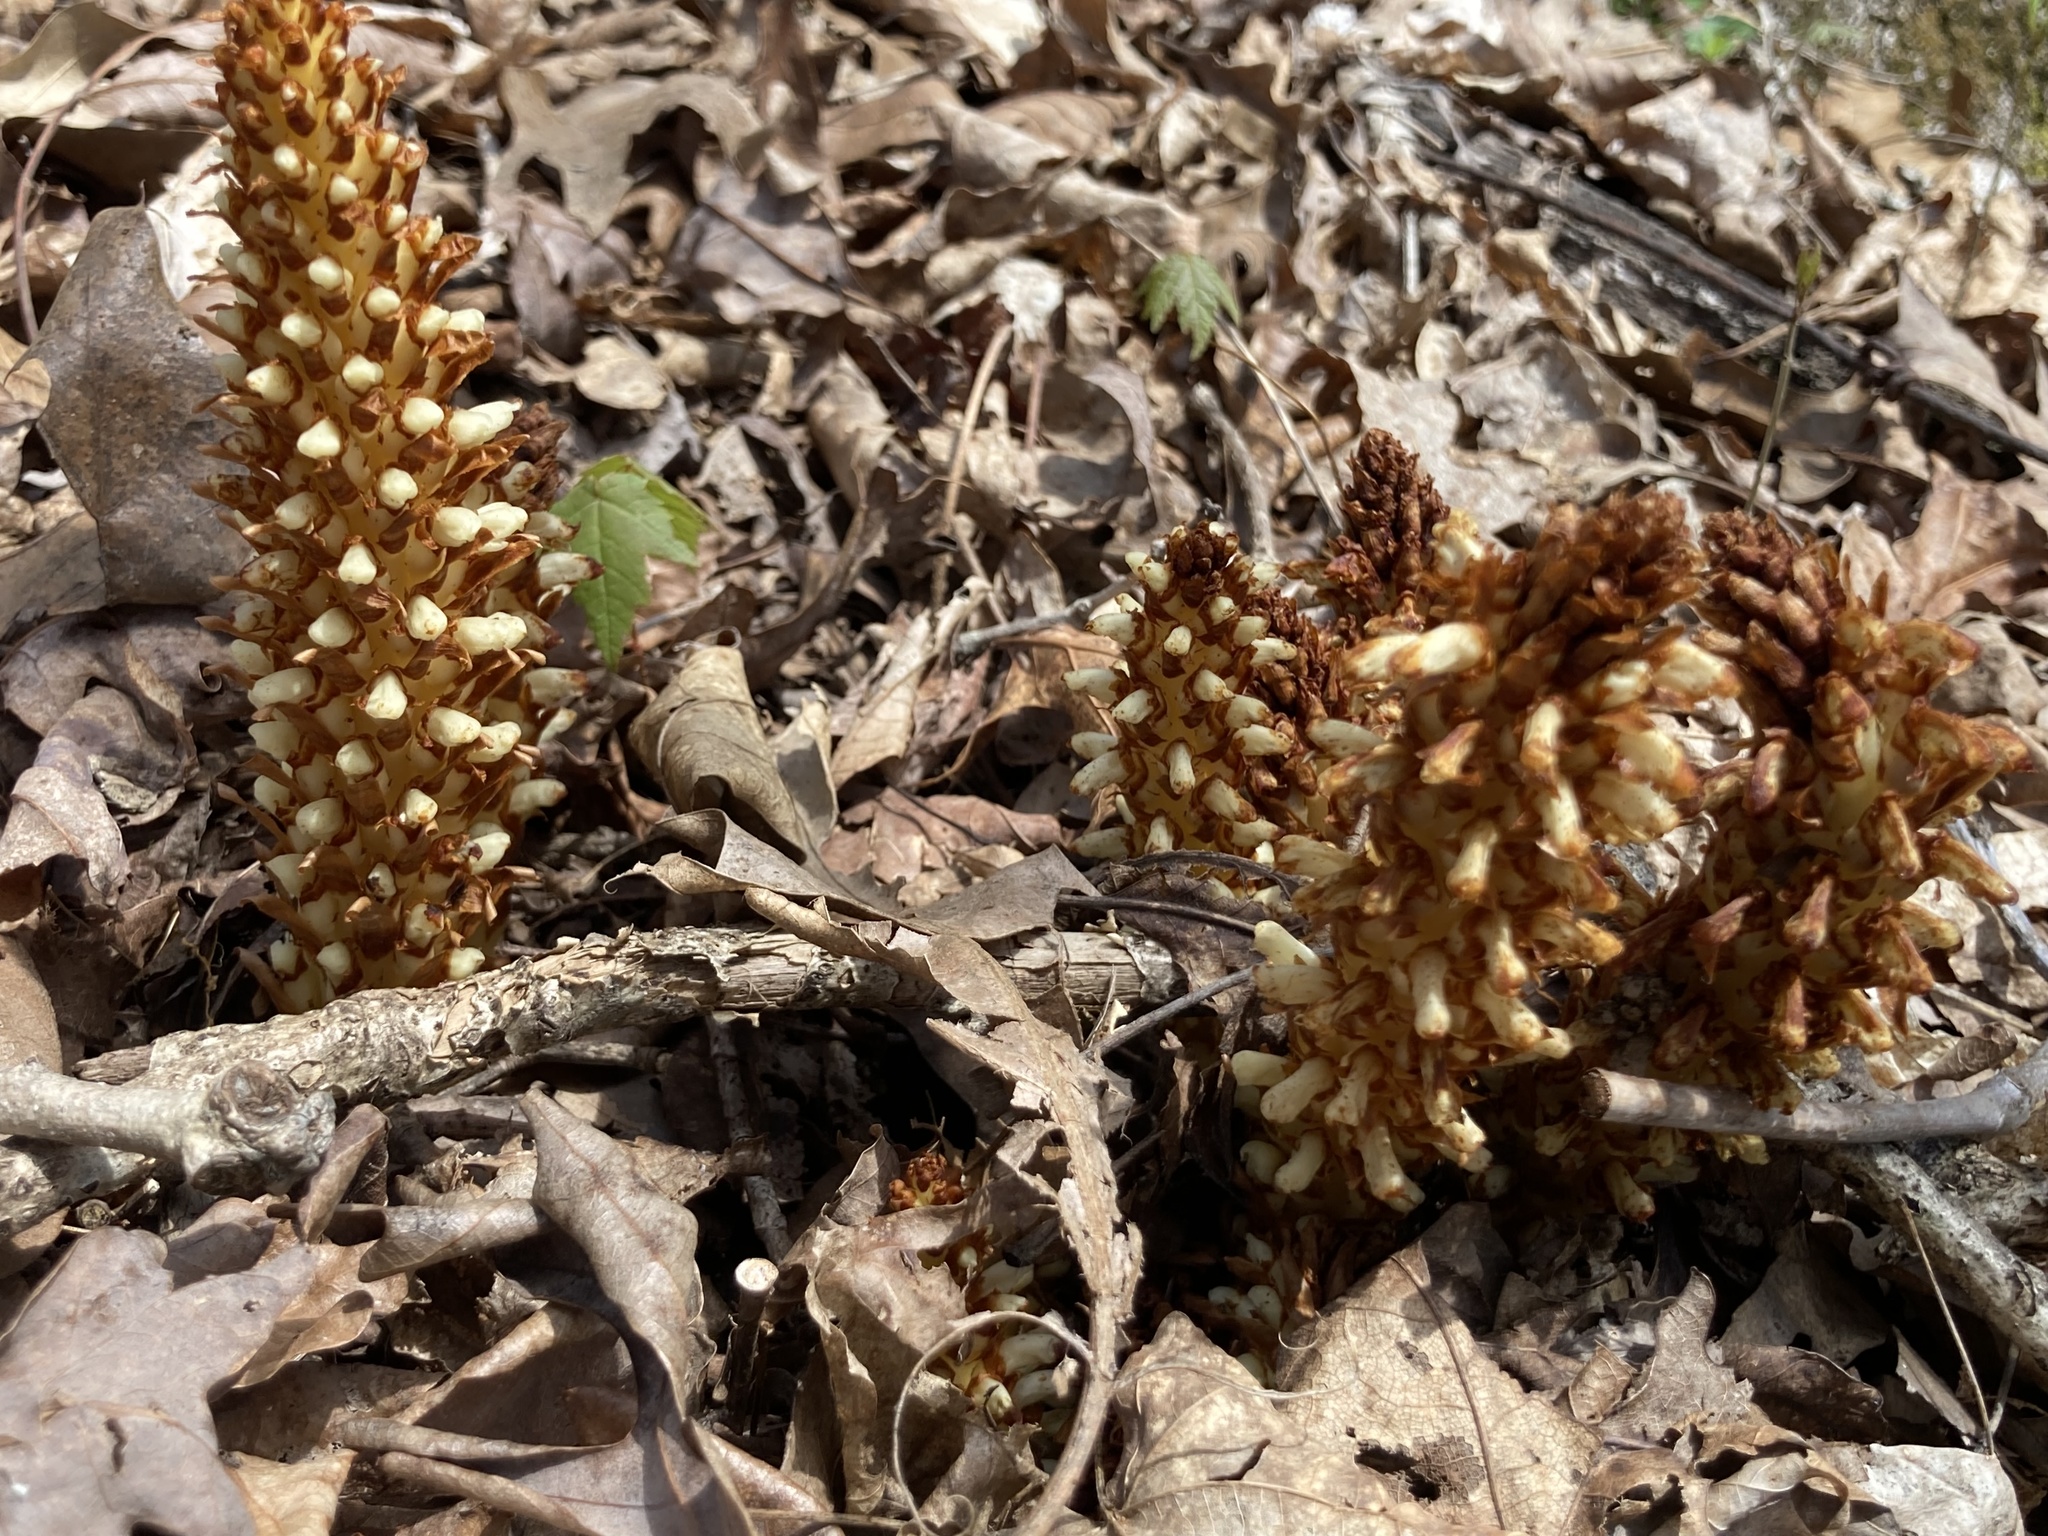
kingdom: Plantae
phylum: Tracheophyta
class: Magnoliopsida
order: Lamiales
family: Orobanchaceae
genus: Conopholis
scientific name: Conopholis americana
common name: American cancer-root
